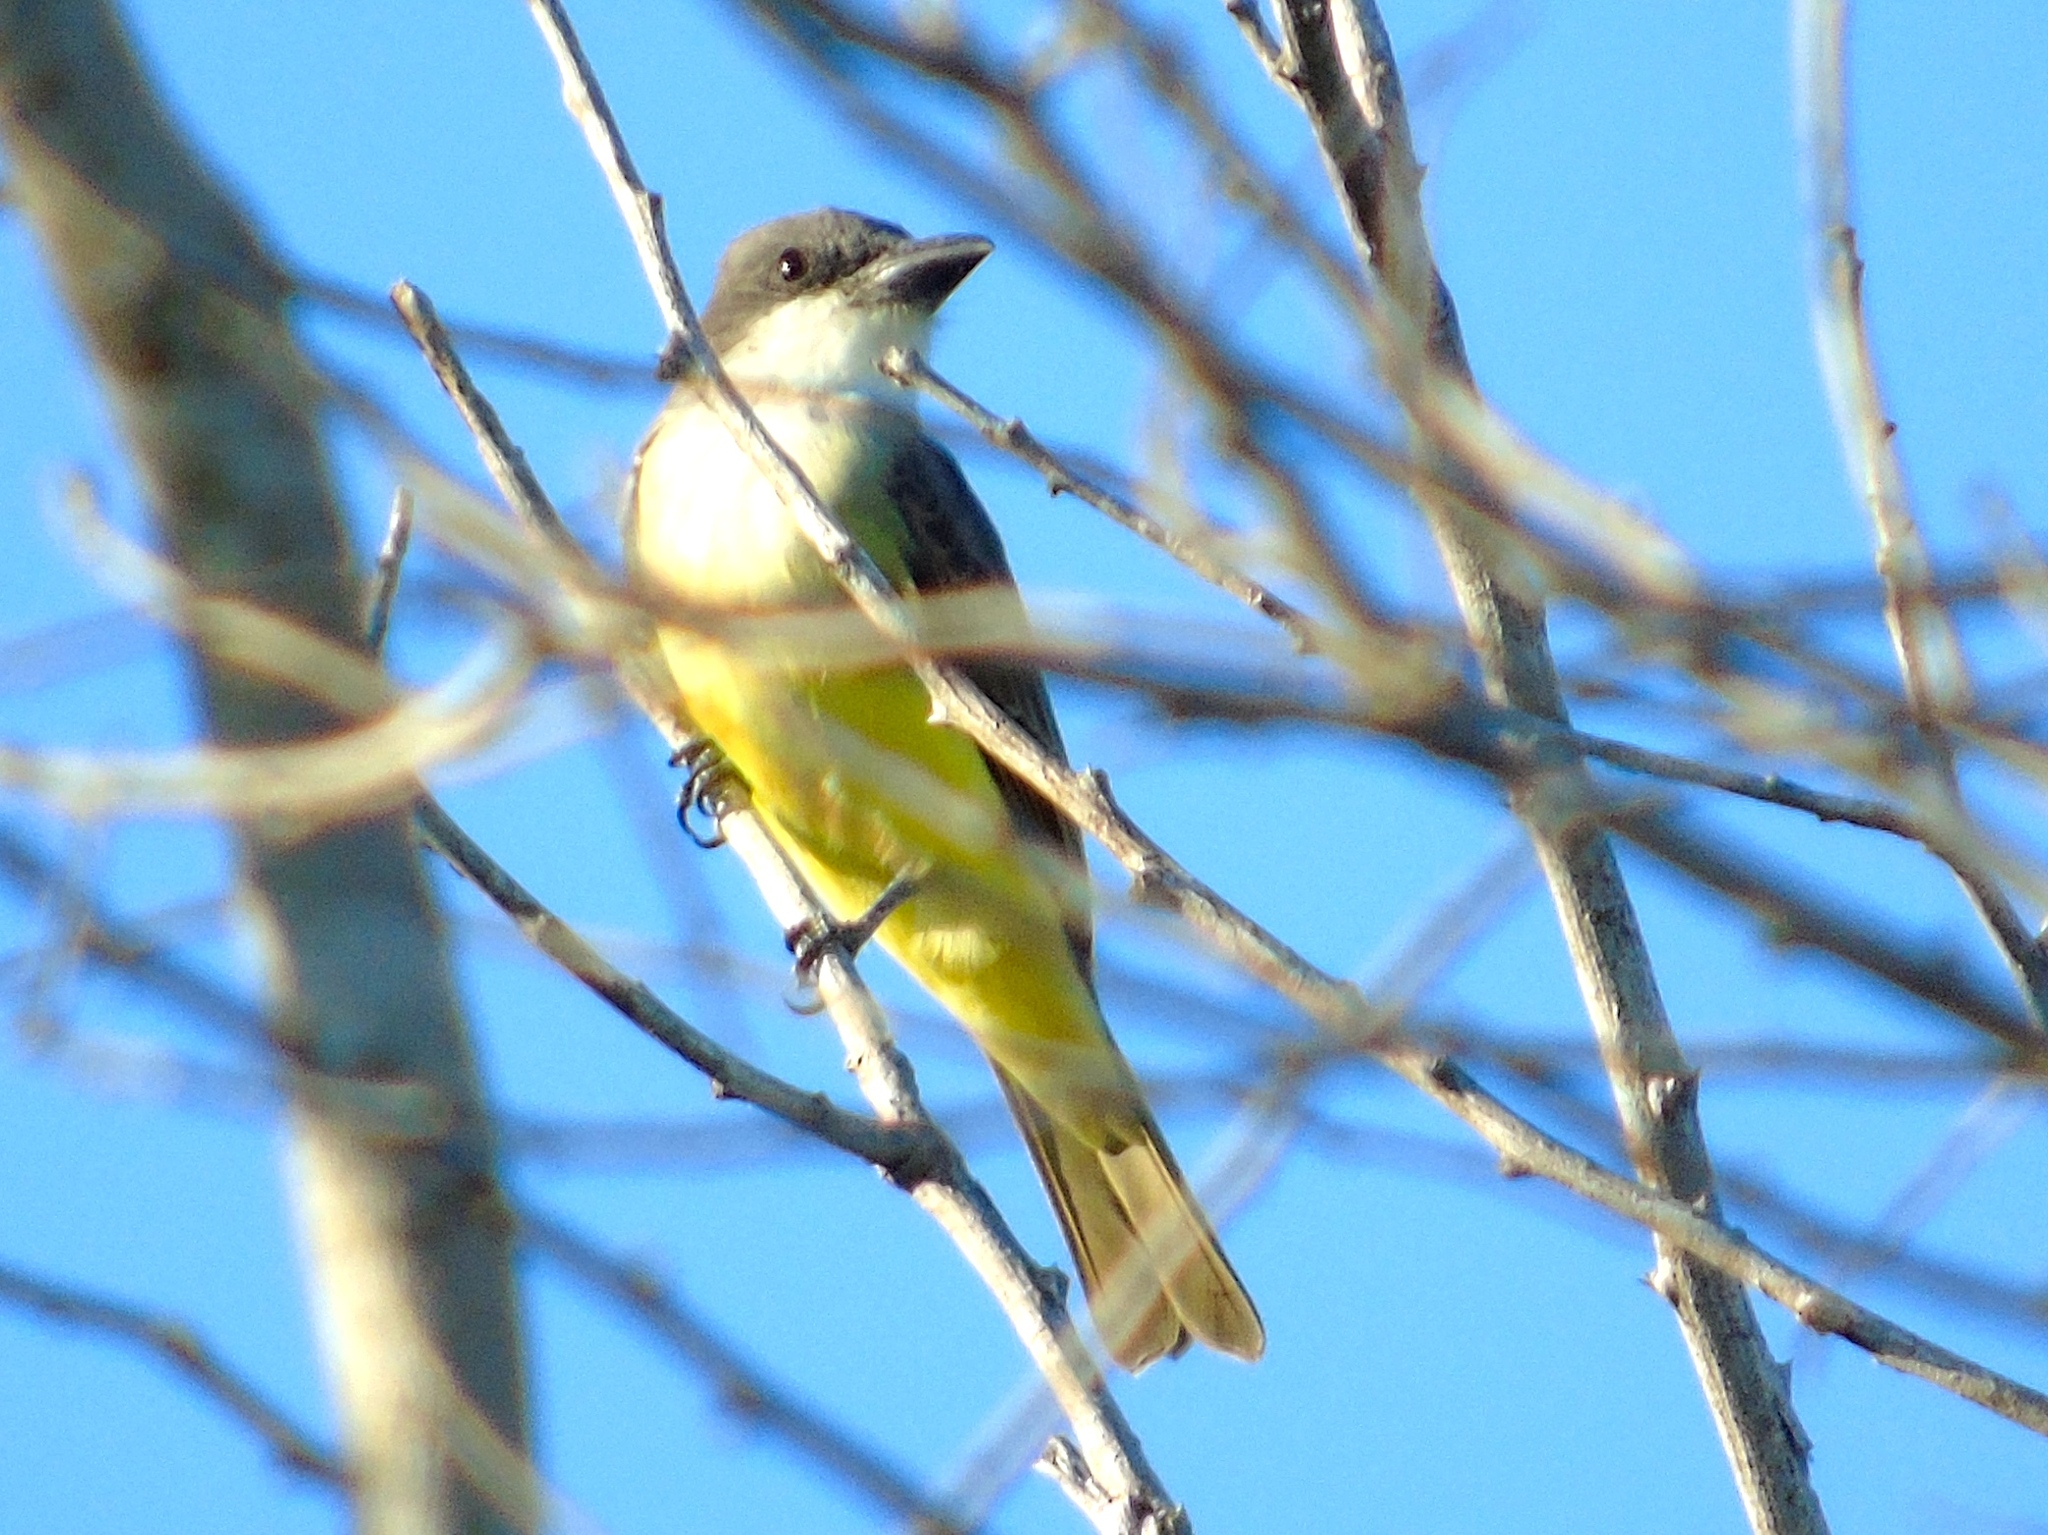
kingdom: Animalia
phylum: Chordata
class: Aves
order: Passeriformes
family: Tyrannidae
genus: Tyrannus
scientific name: Tyrannus crassirostris
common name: Thick-billed kingbird
